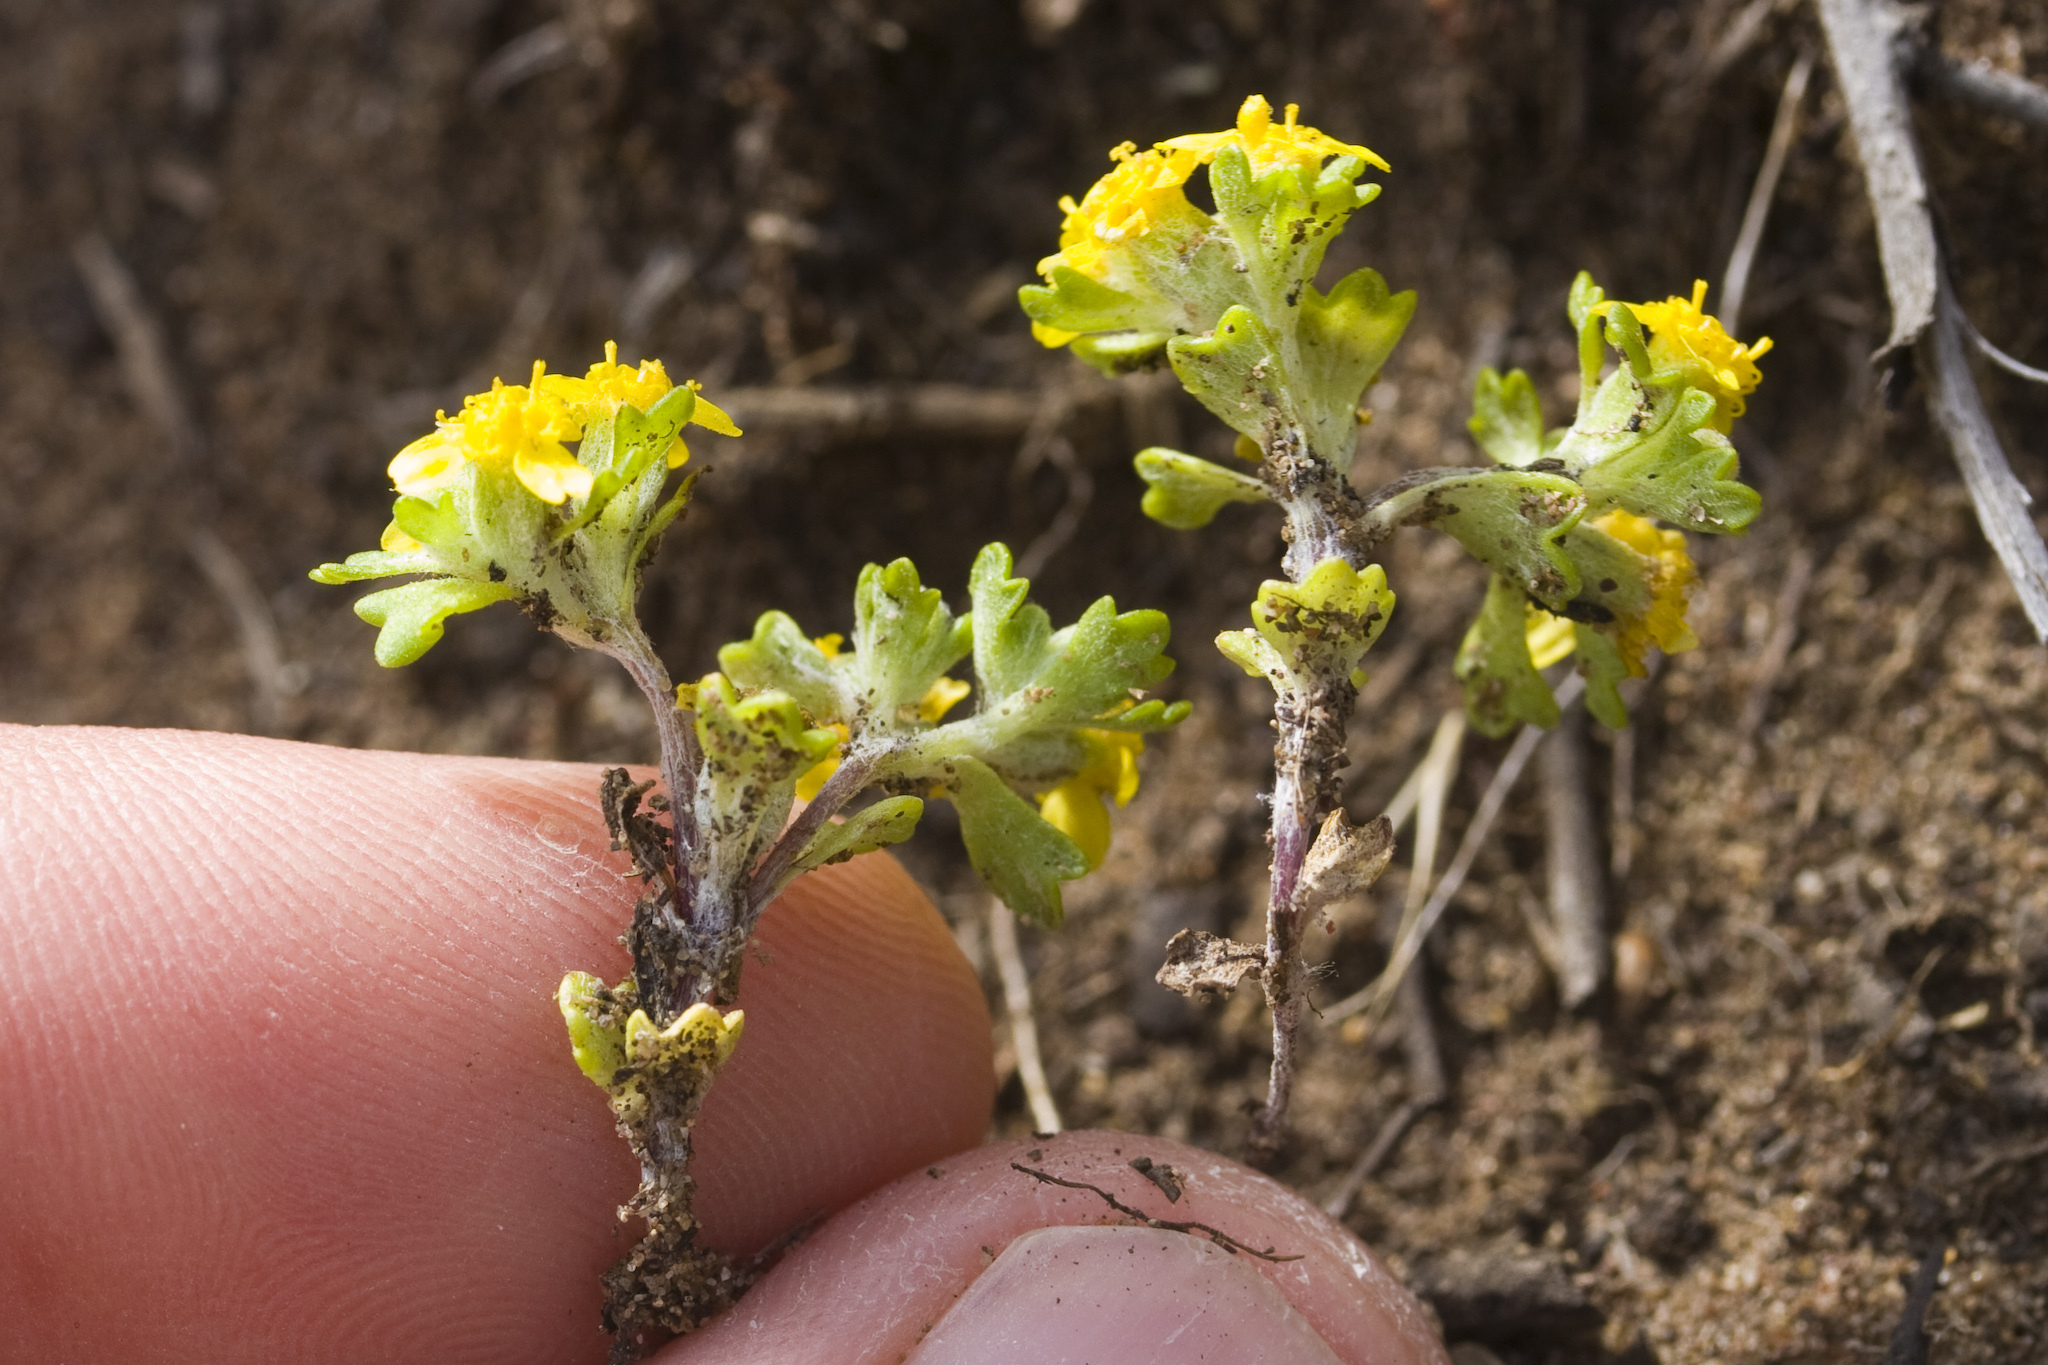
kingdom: Plantae
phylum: Tracheophyta
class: Magnoliopsida
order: Asterales
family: Asteraceae
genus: Eriophyllum
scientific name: Eriophyllum multicaule
